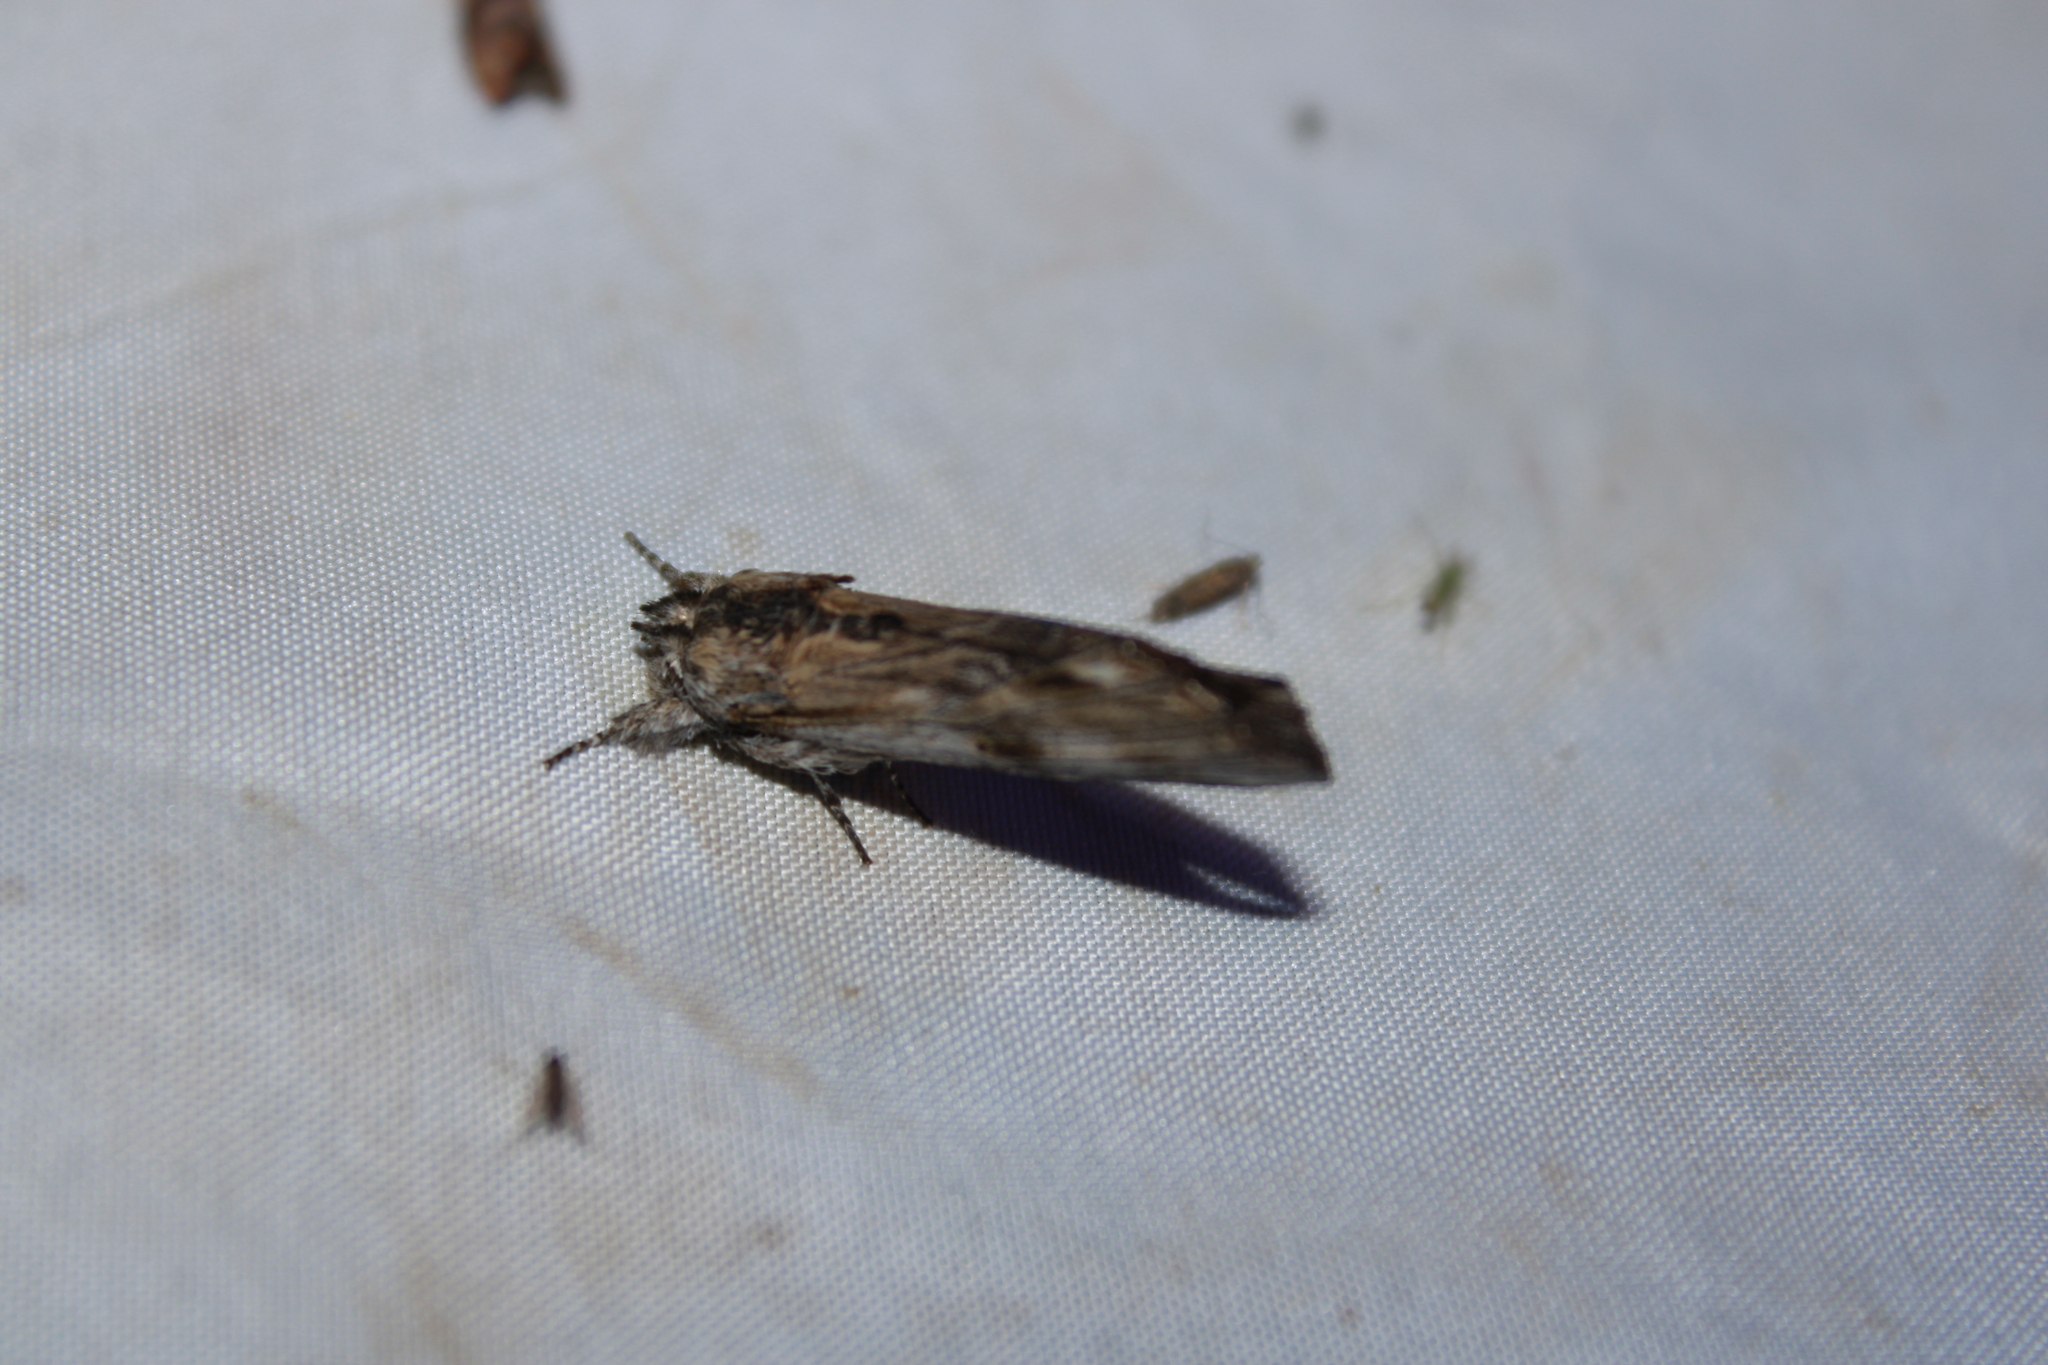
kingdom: Animalia
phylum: Arthropoda
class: Insecta
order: Lepidoptera
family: Notodontidae
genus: Oligocentria
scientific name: Oligocentria Ianassa lignicolor
